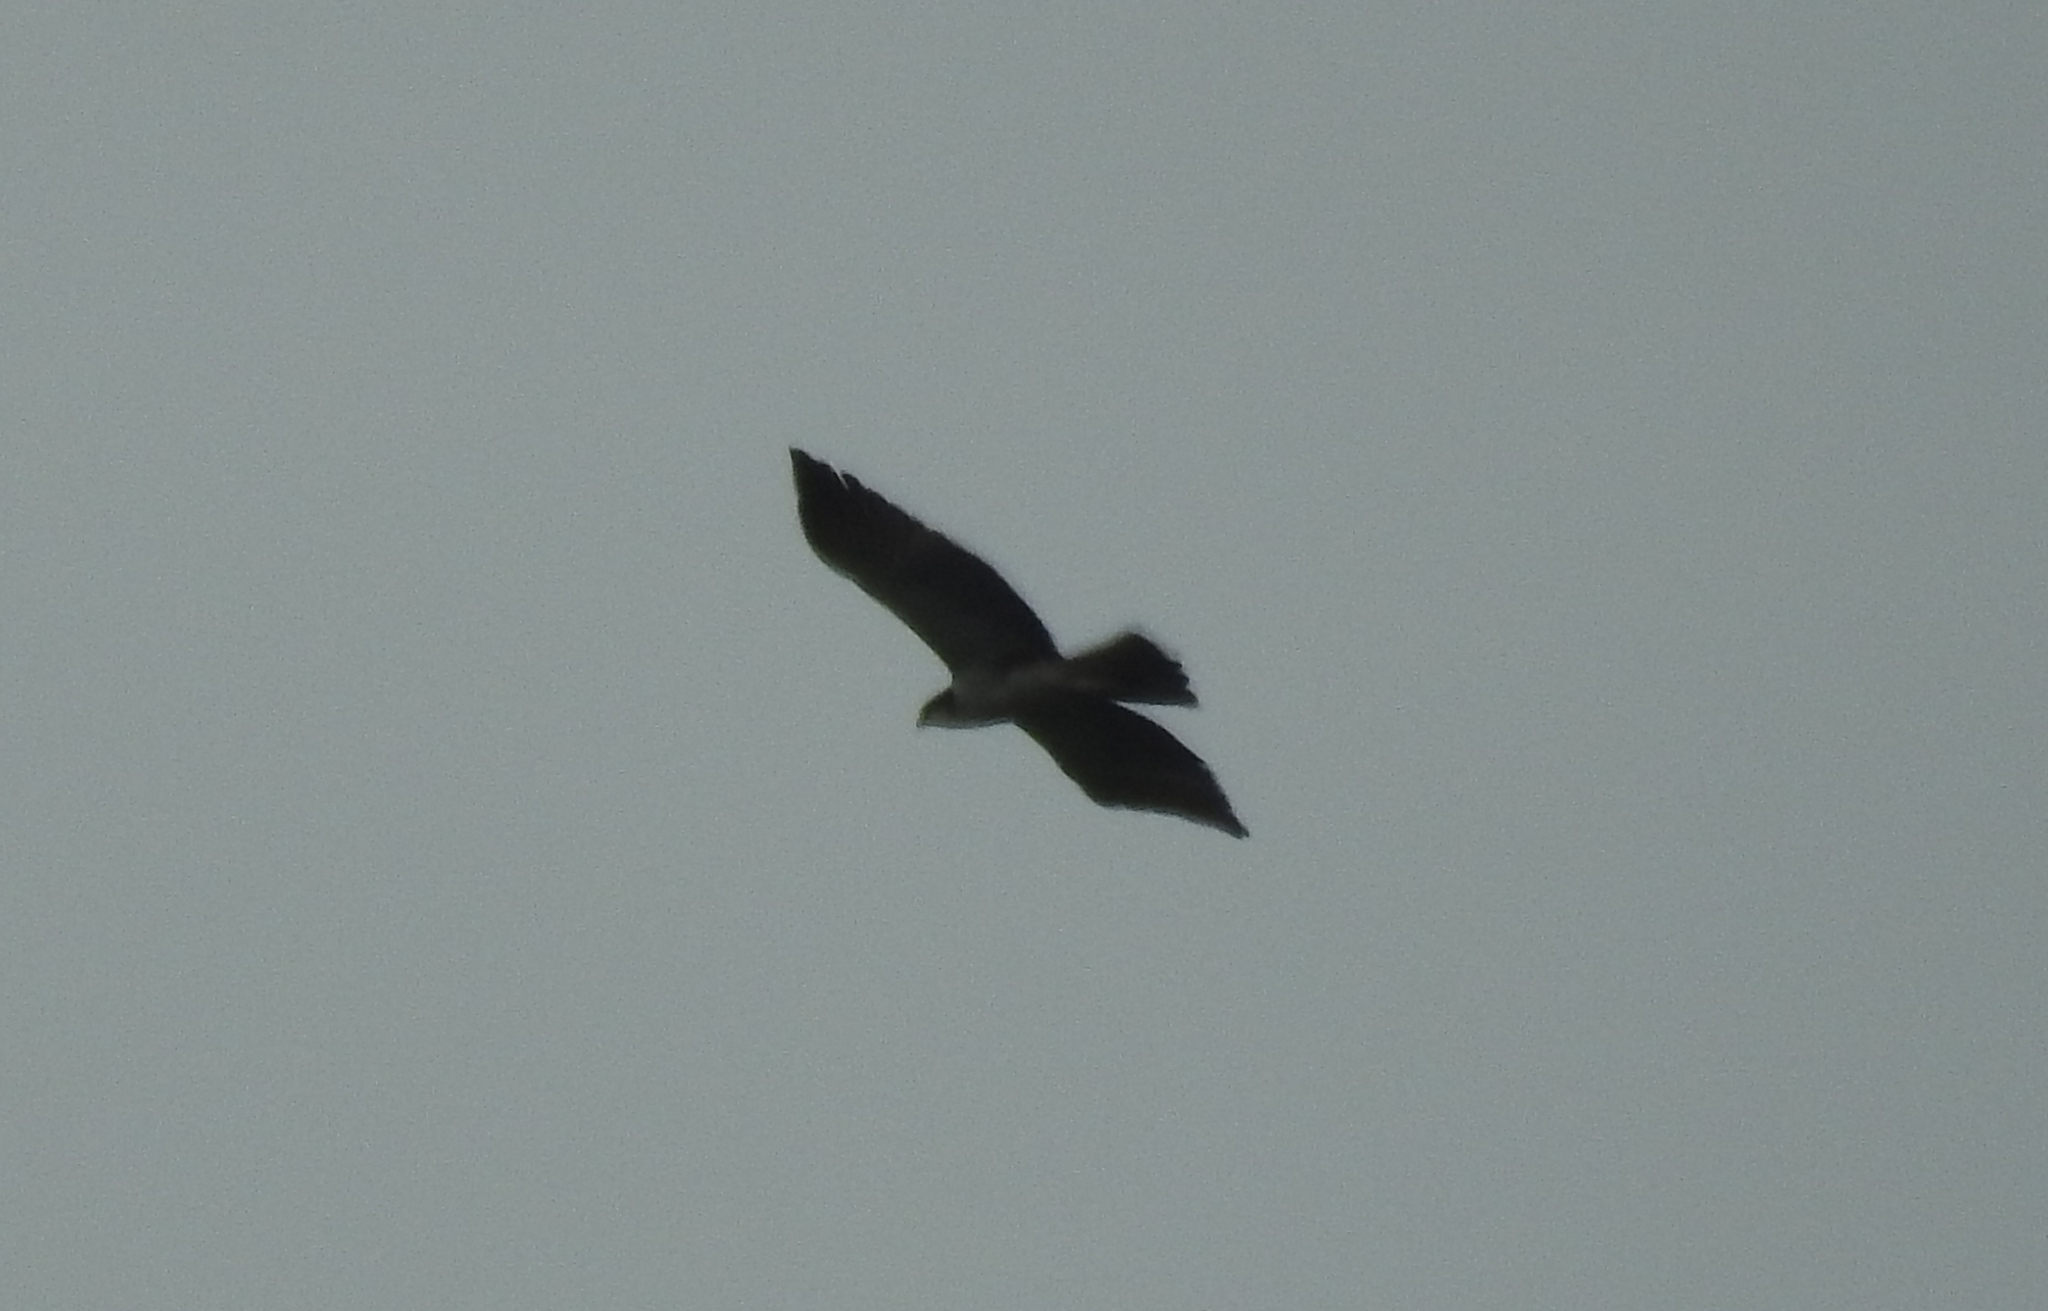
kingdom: Animalia
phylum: Chordata
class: Aves
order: Accipitriformes
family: Accipitridae
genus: Lophotriorchis
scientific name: Lophotriorchis kienerii
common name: Rufous-bellied eagle
